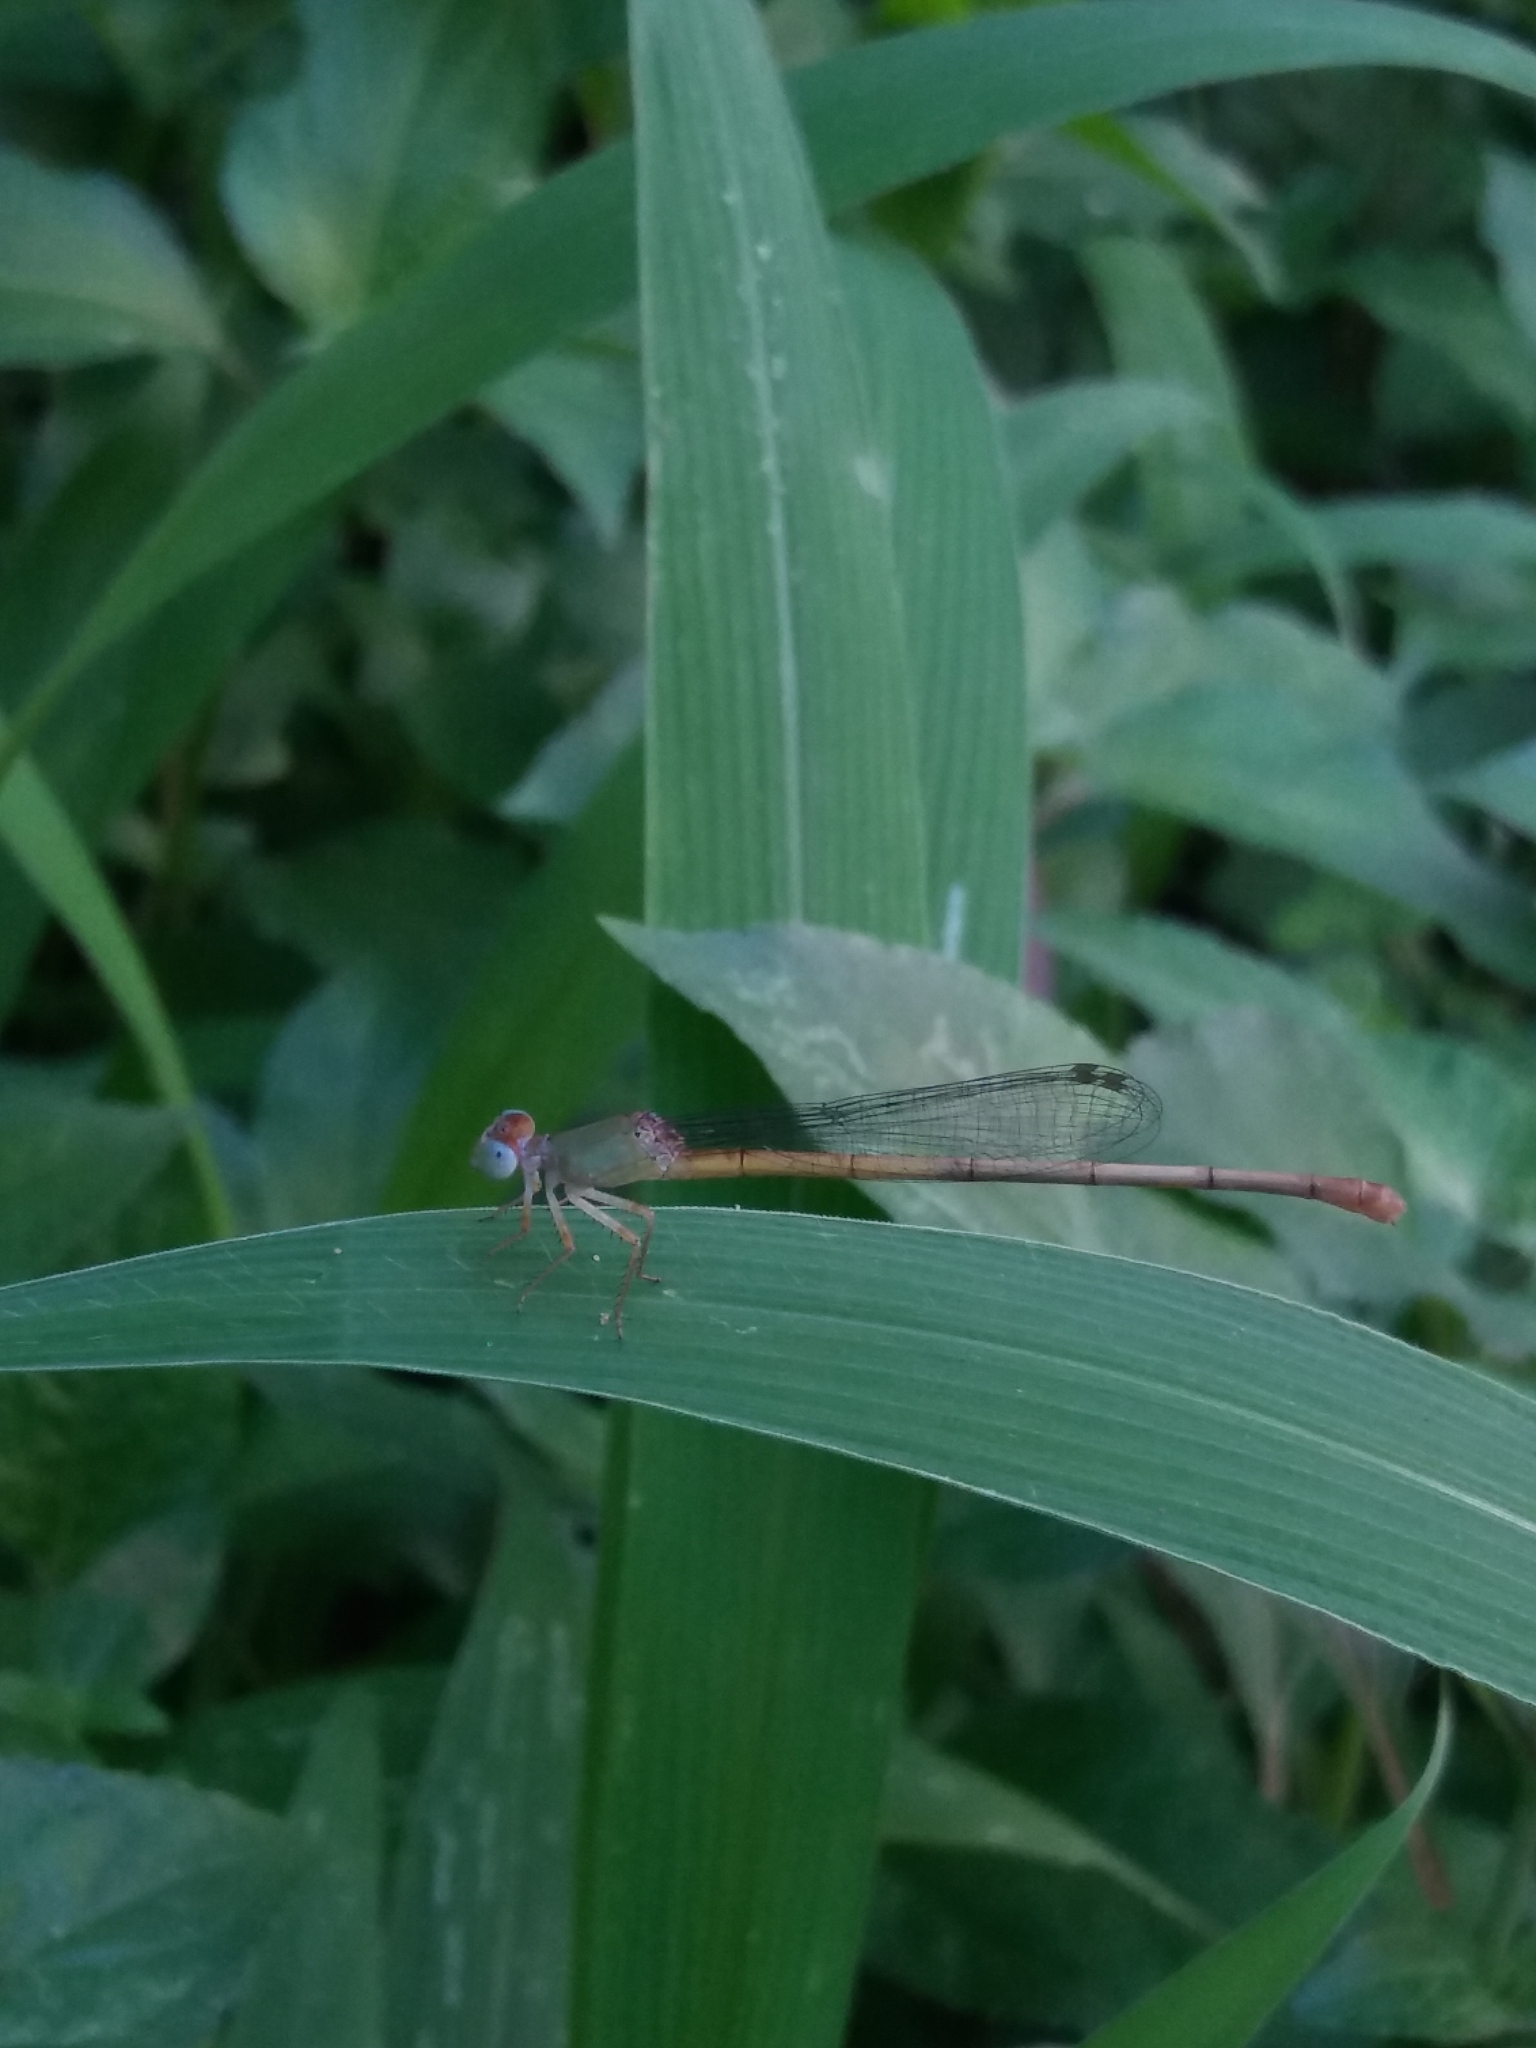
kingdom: Animalia
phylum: Arthropoda
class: Insecta
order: Odonata
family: Coenagrionidae
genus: Ceriagrion
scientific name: Ceriagrion cerinorubellum
